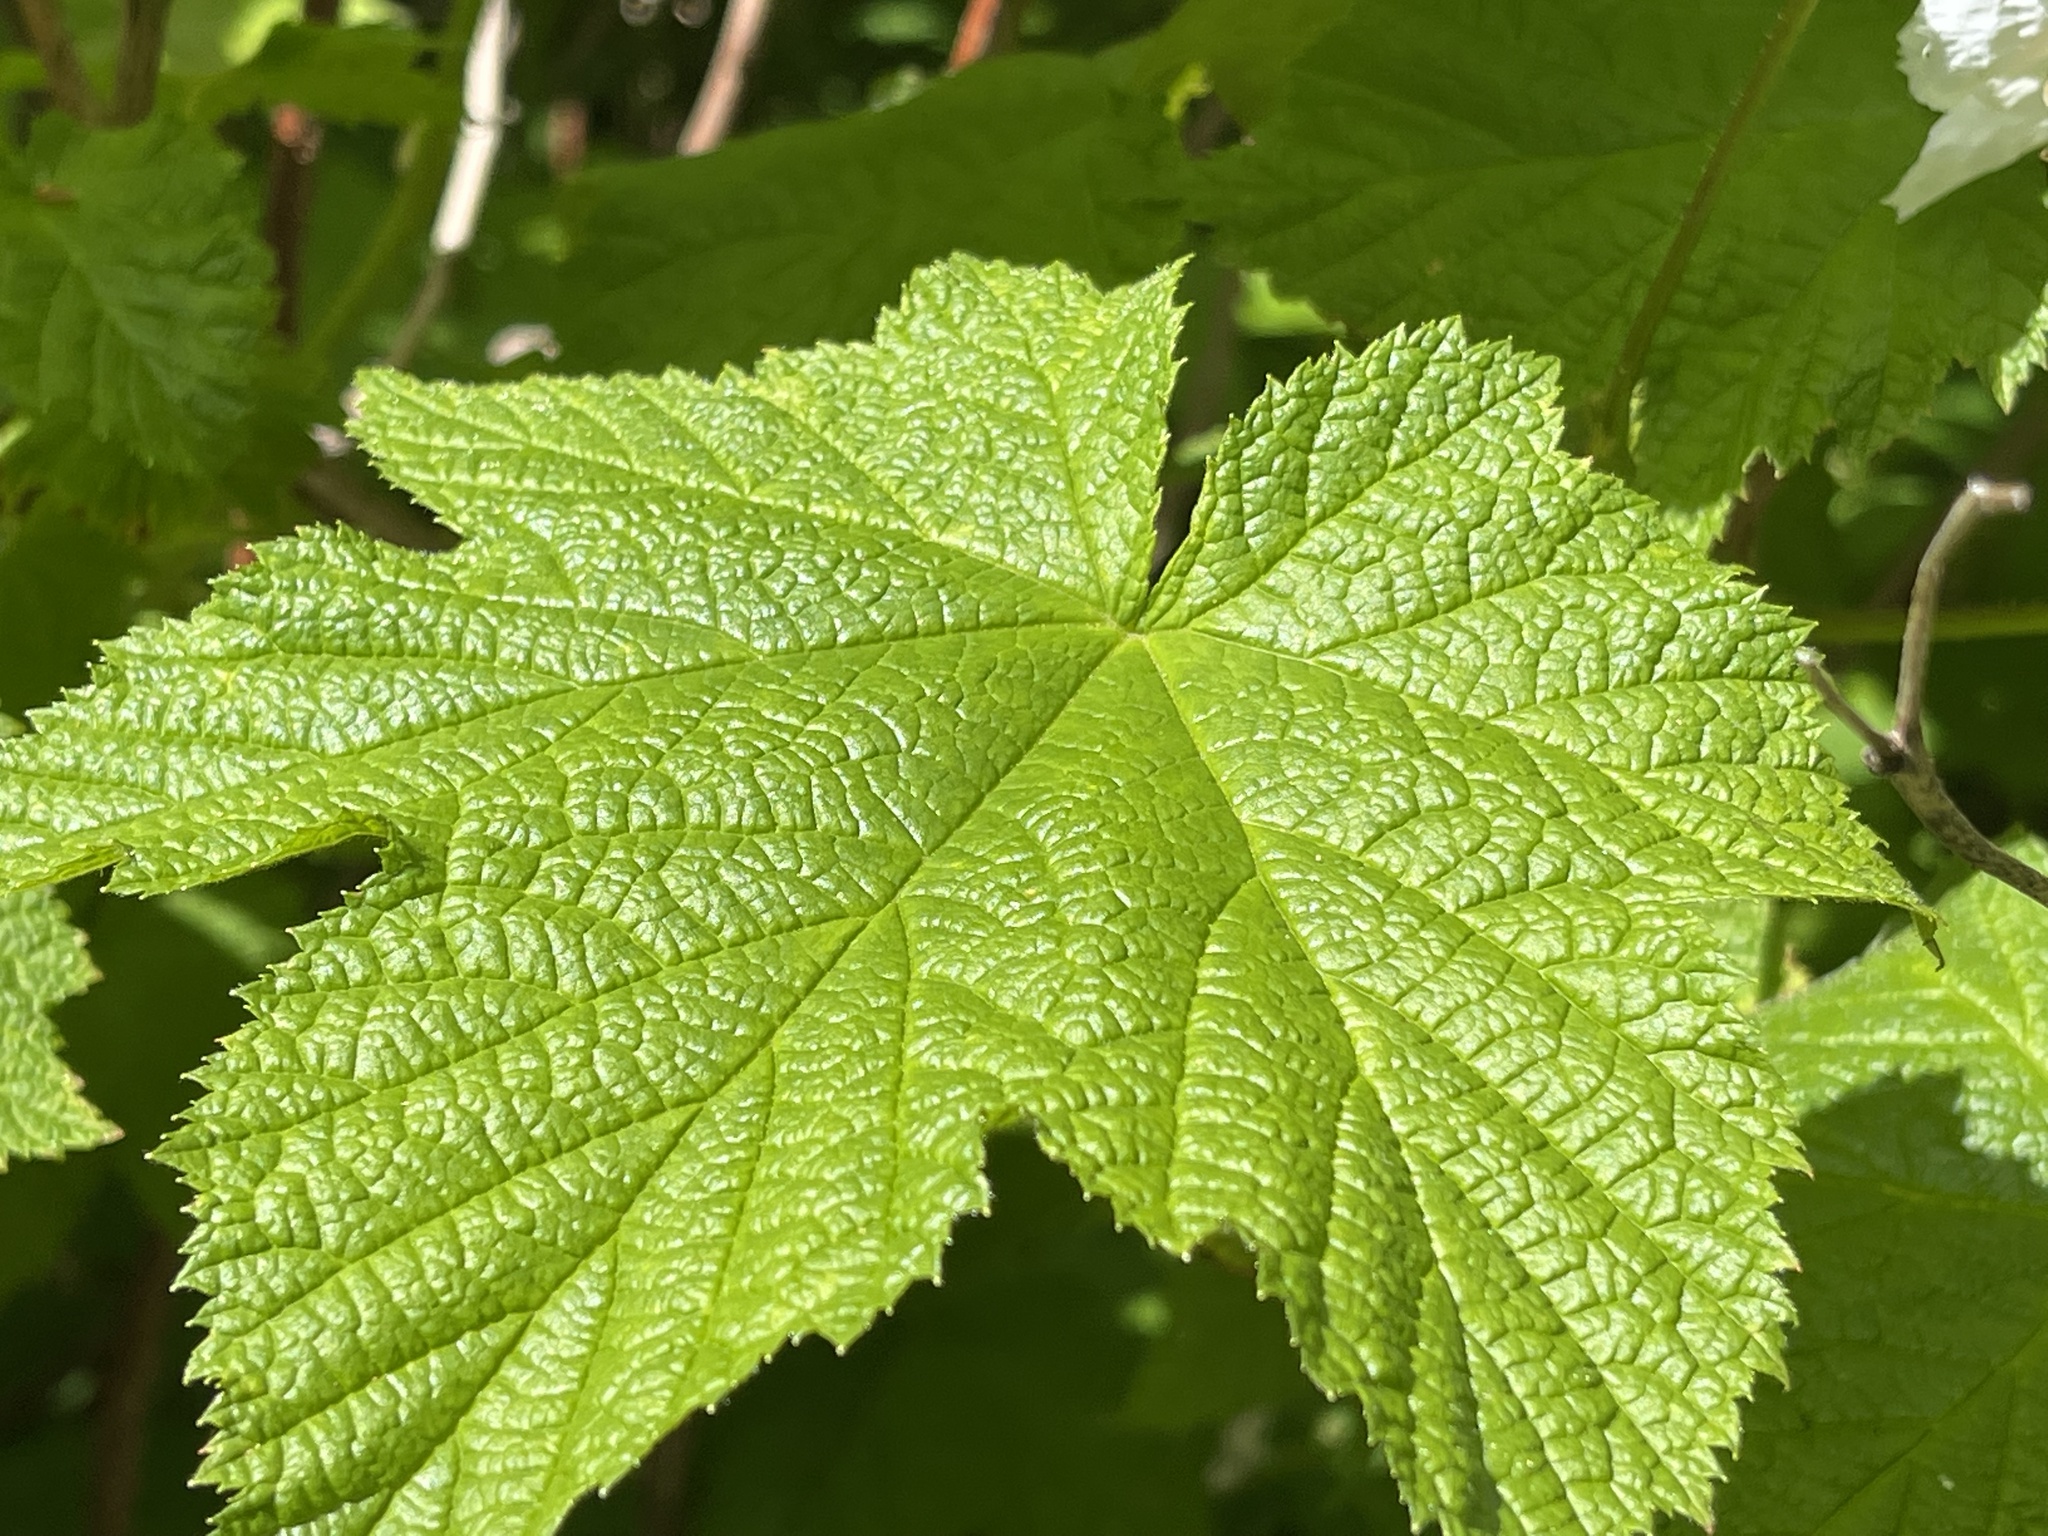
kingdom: Plantae
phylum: Tracheophyta
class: Magnoliopsida
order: Rosales
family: Rosaceae
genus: Rubus
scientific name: Rubus parviflorus
